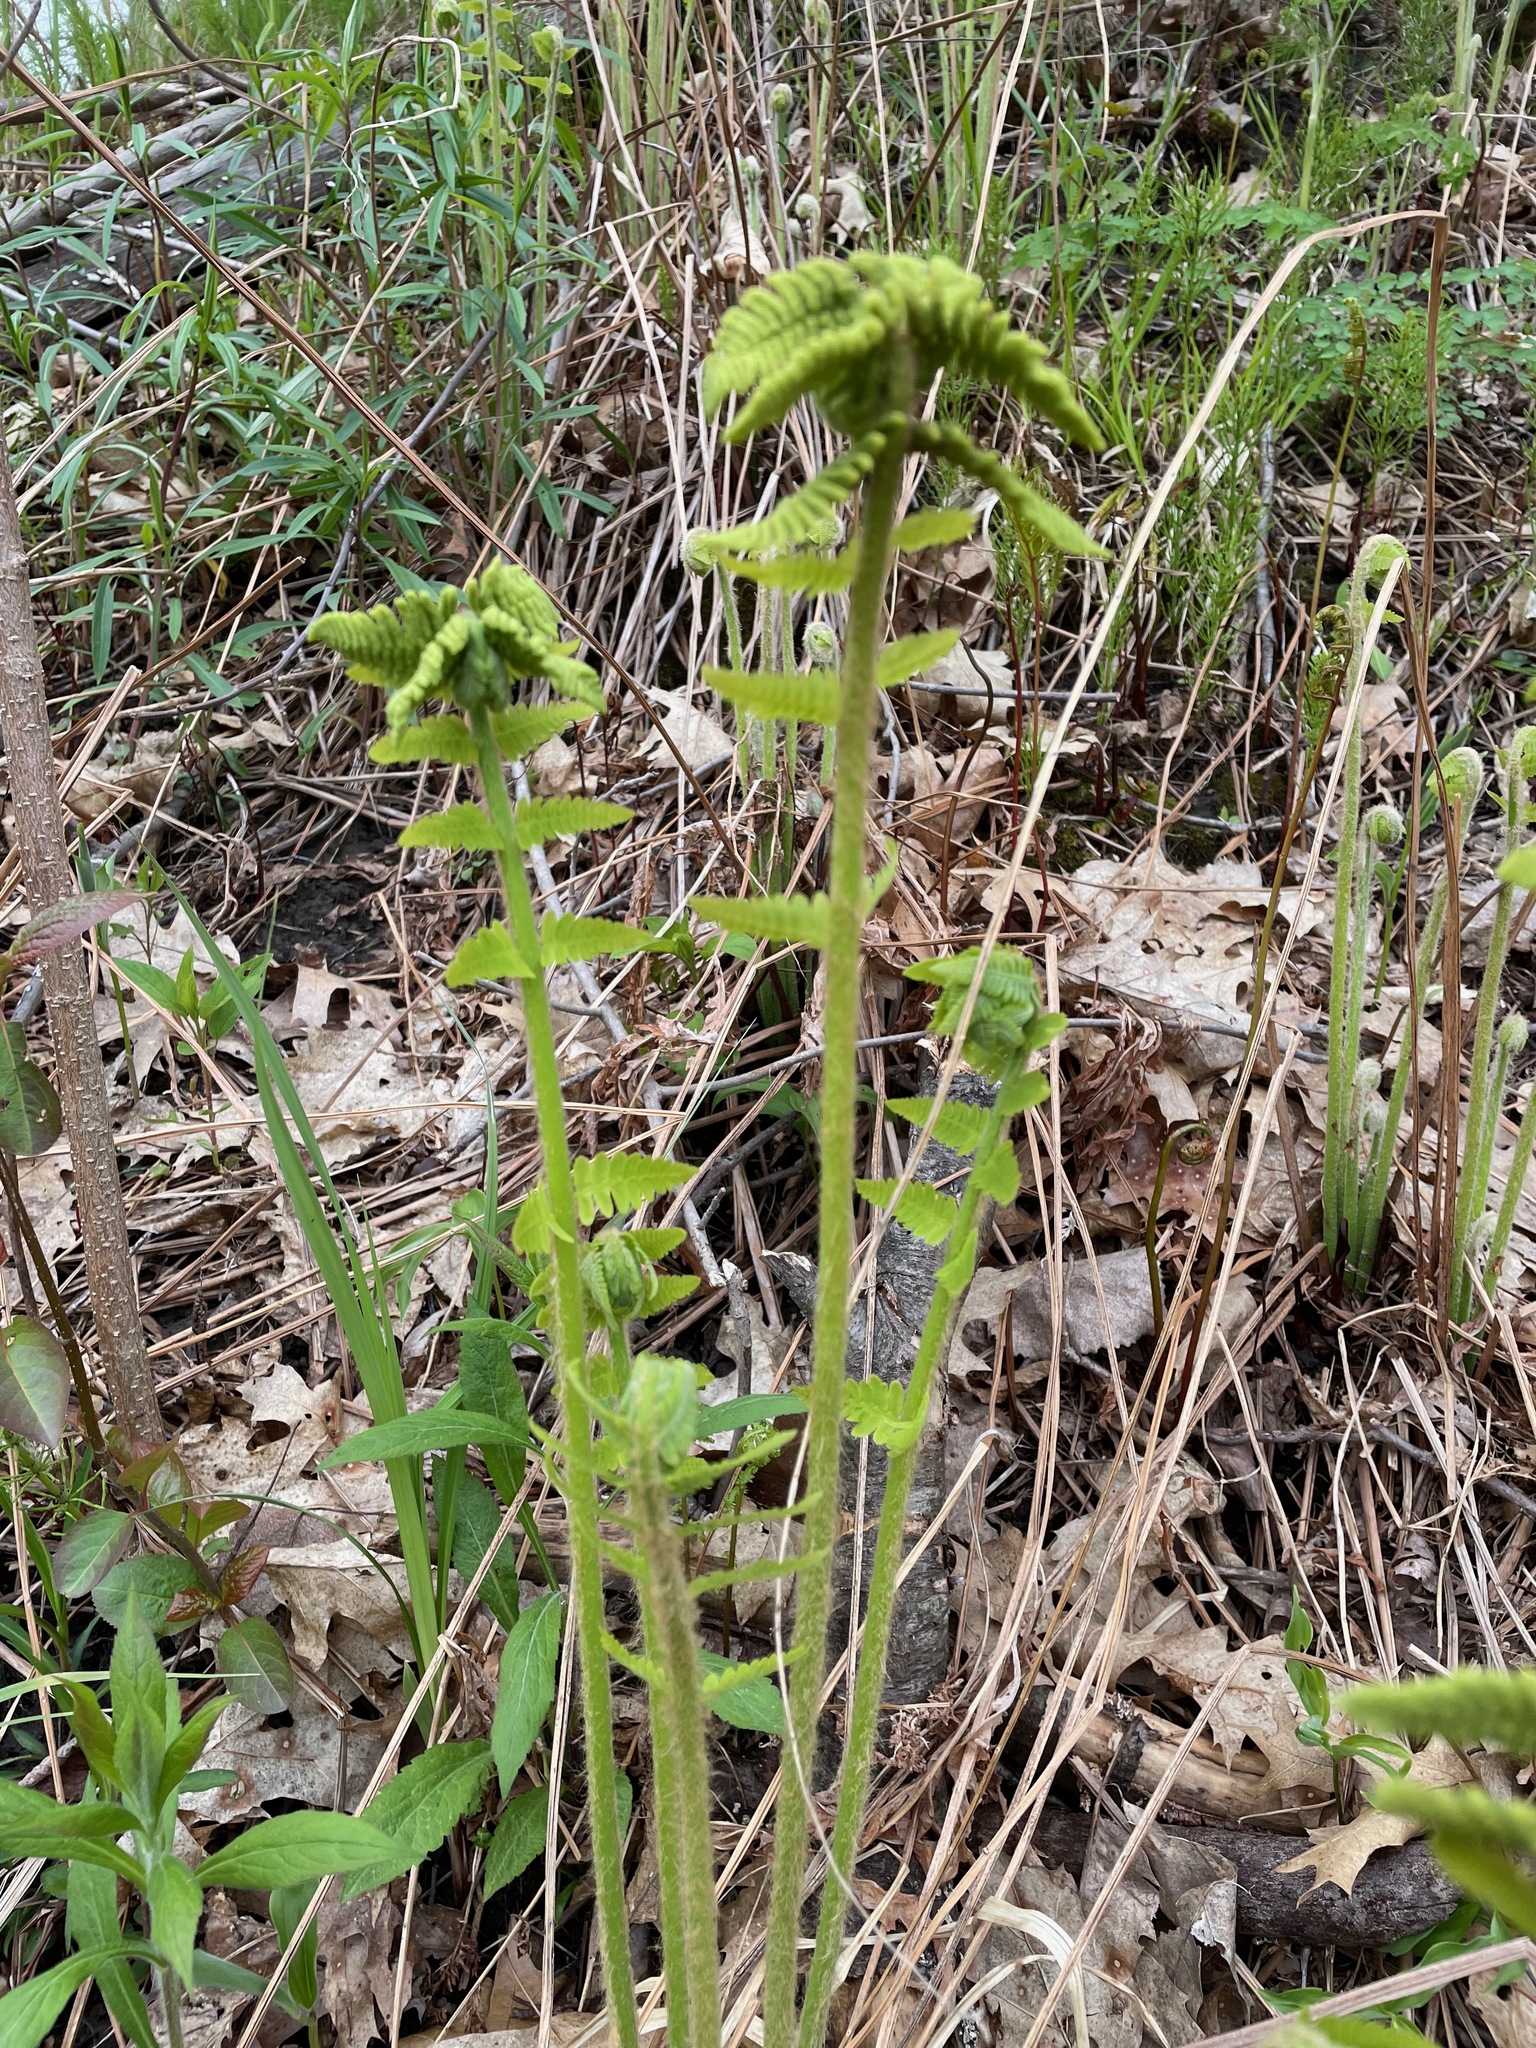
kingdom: Plantae
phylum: Tracheophyta
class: Polypodiopsida
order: Osmundales
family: Osmundaceae
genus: Osmundastrum
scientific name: Osmundastrum cinnamomeum
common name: Cinnamon fern
